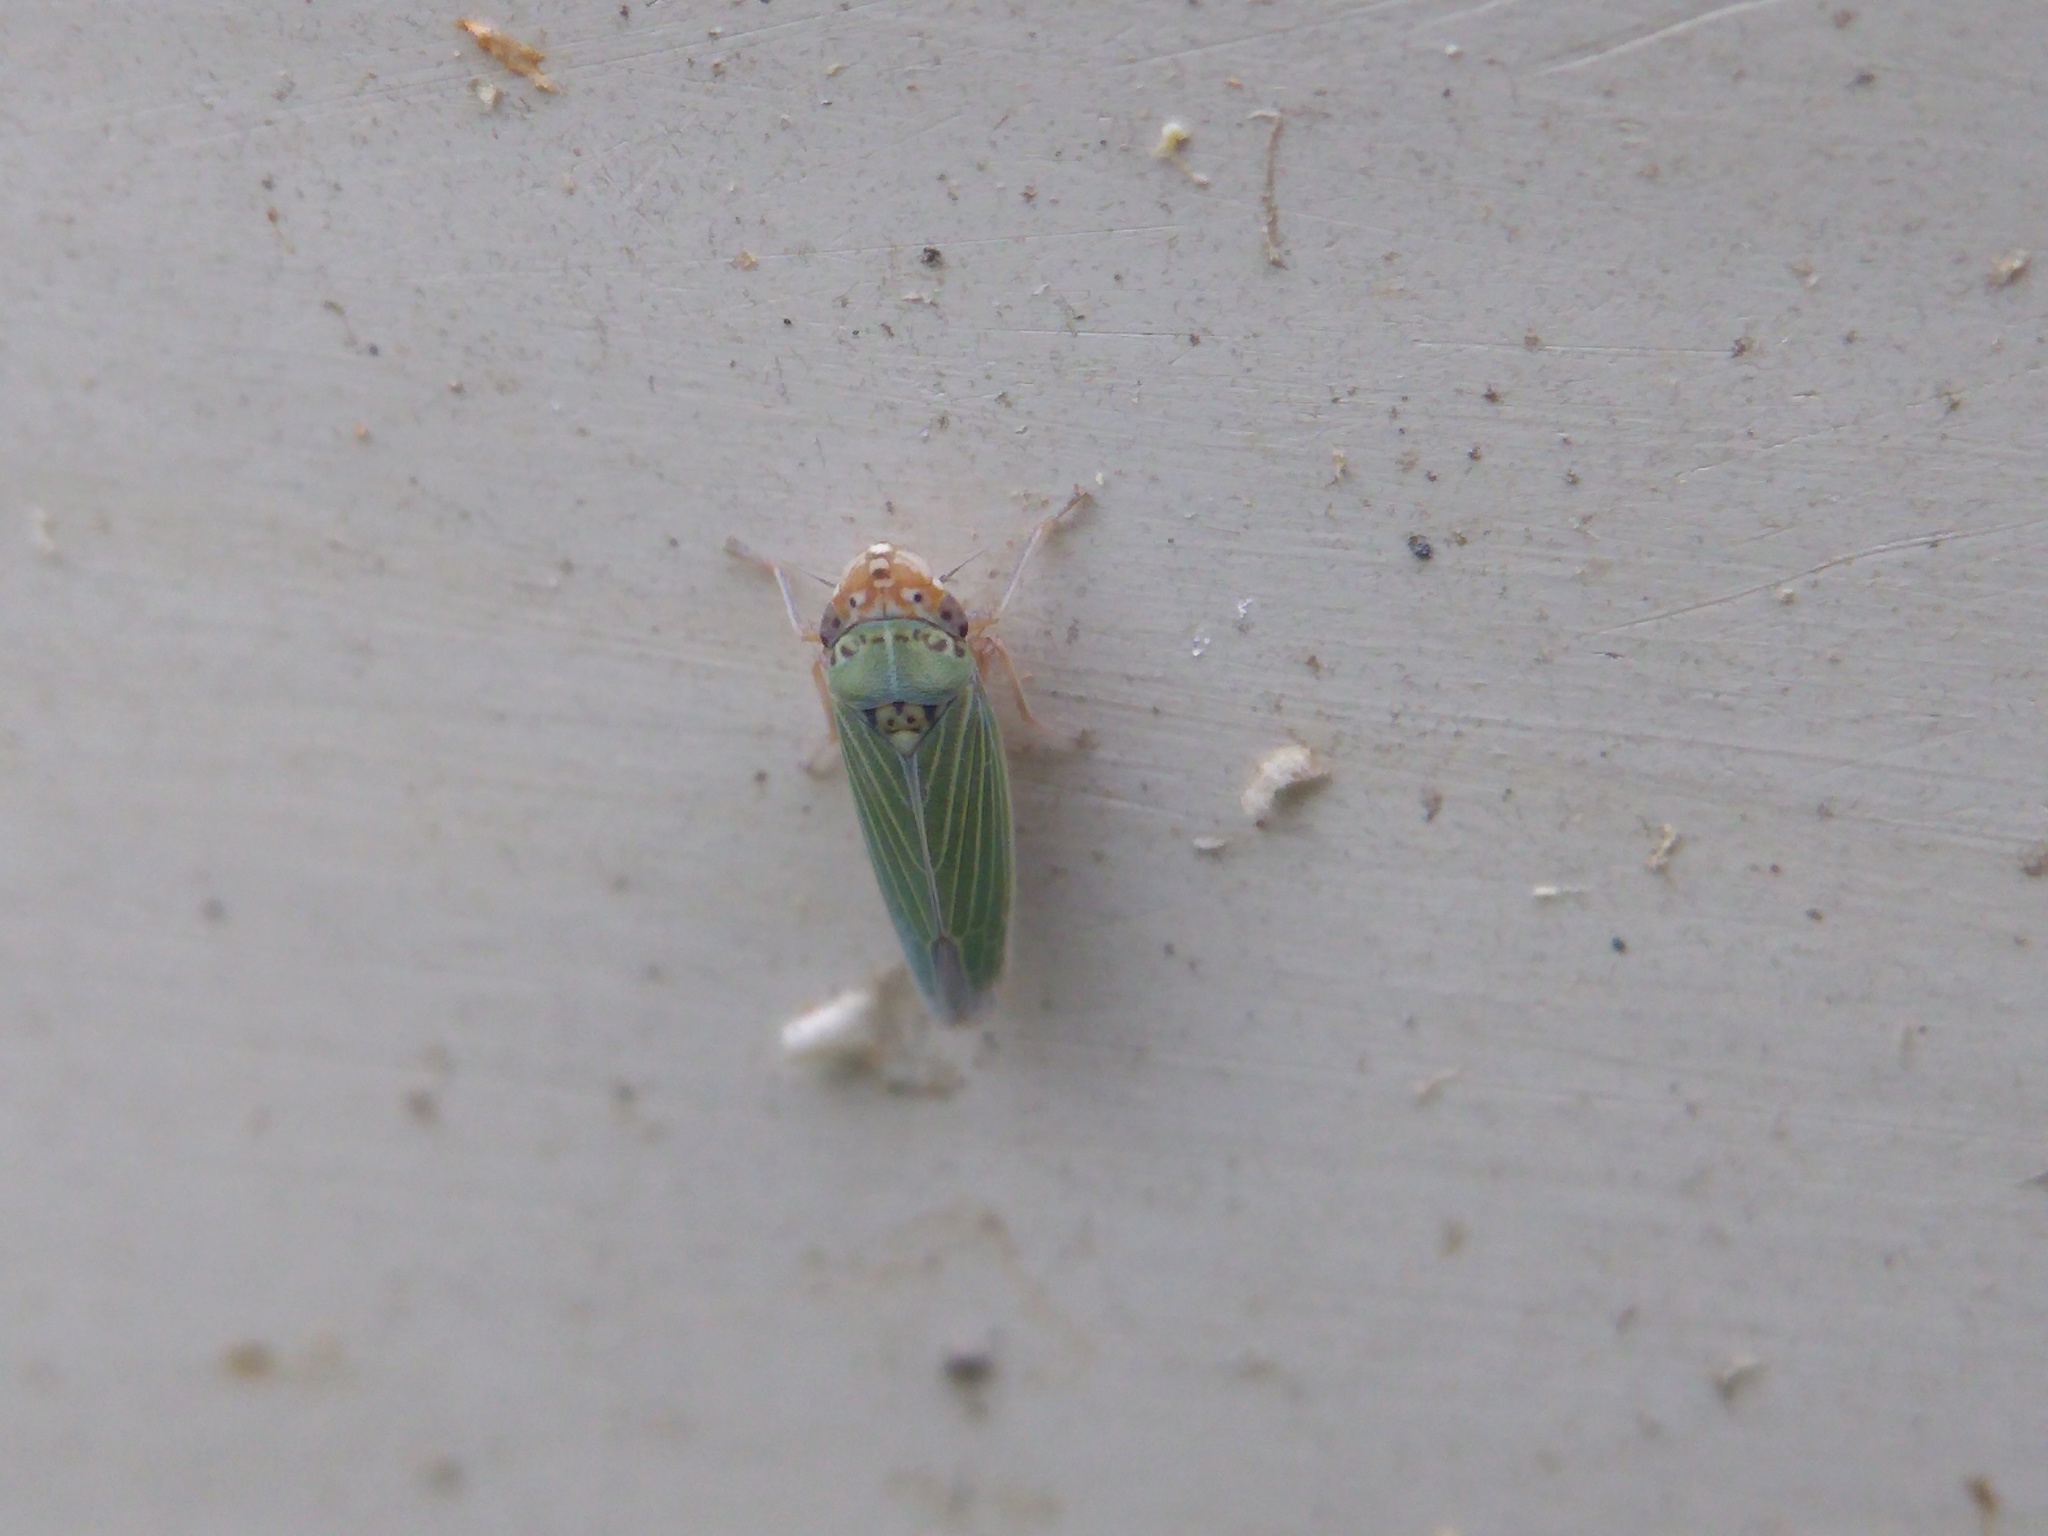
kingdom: Animalia
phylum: Arthropoda
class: Insecta
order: Hemiptera
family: Cicadellidae
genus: Xyphon
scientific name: Xyphon reticulatum
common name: Planthopper
